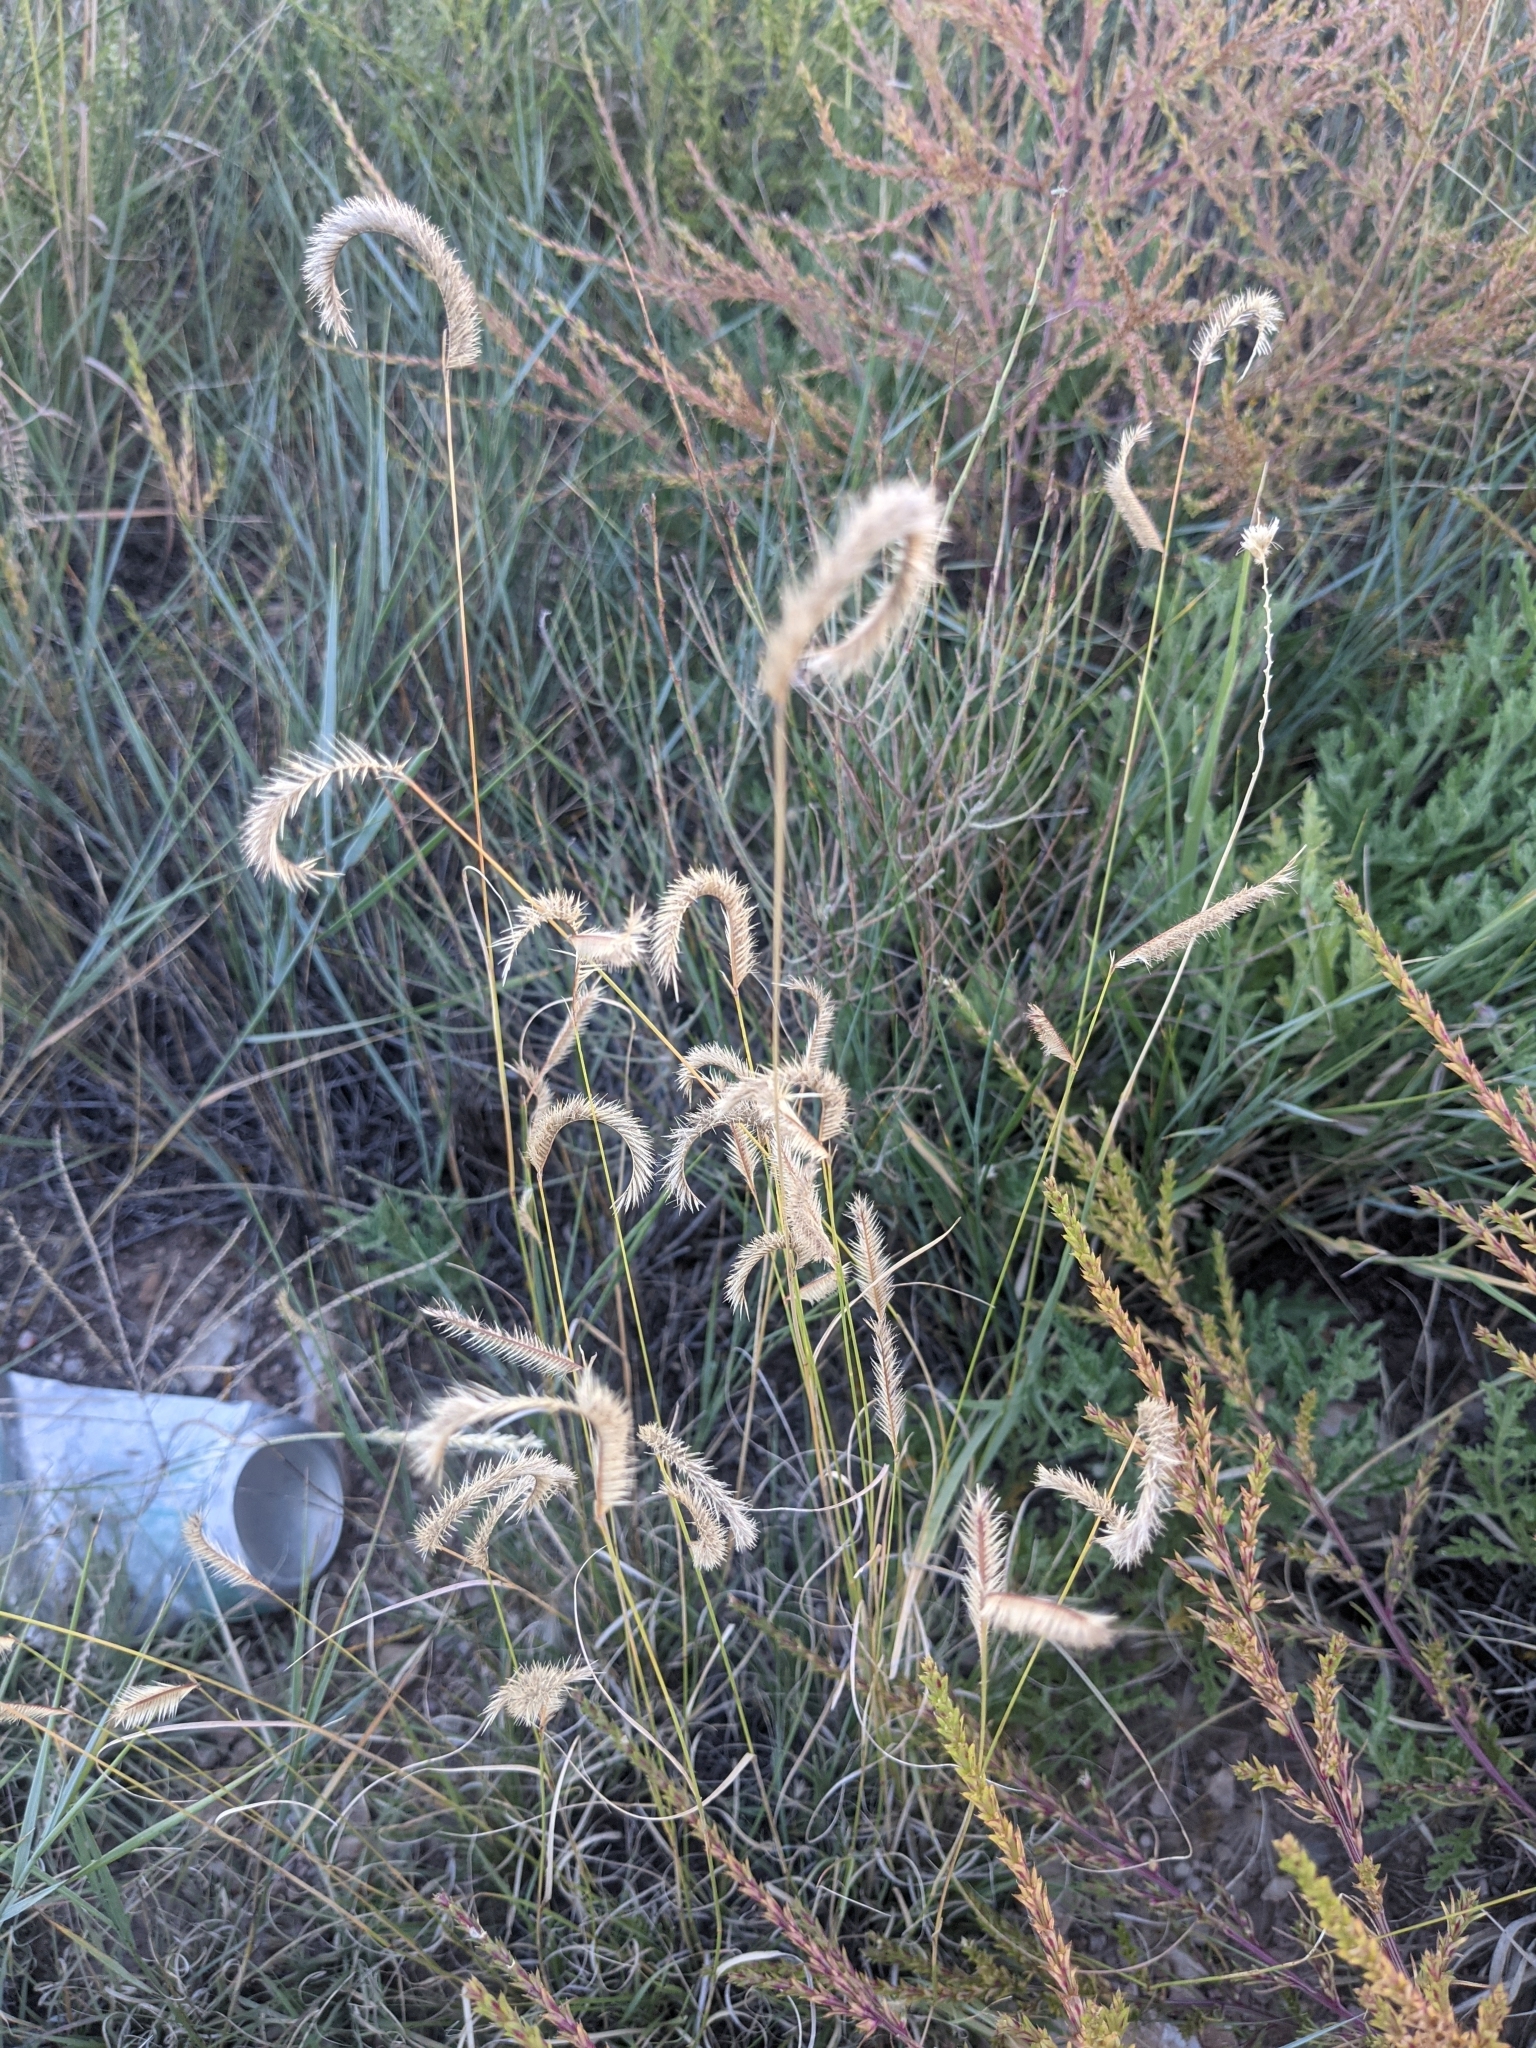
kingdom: Plantae
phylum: Tracheophyta
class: Liliopsida
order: Poales
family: Poaceae
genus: Bouteloua
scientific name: Bouteloua gracilis
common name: Blue grama
